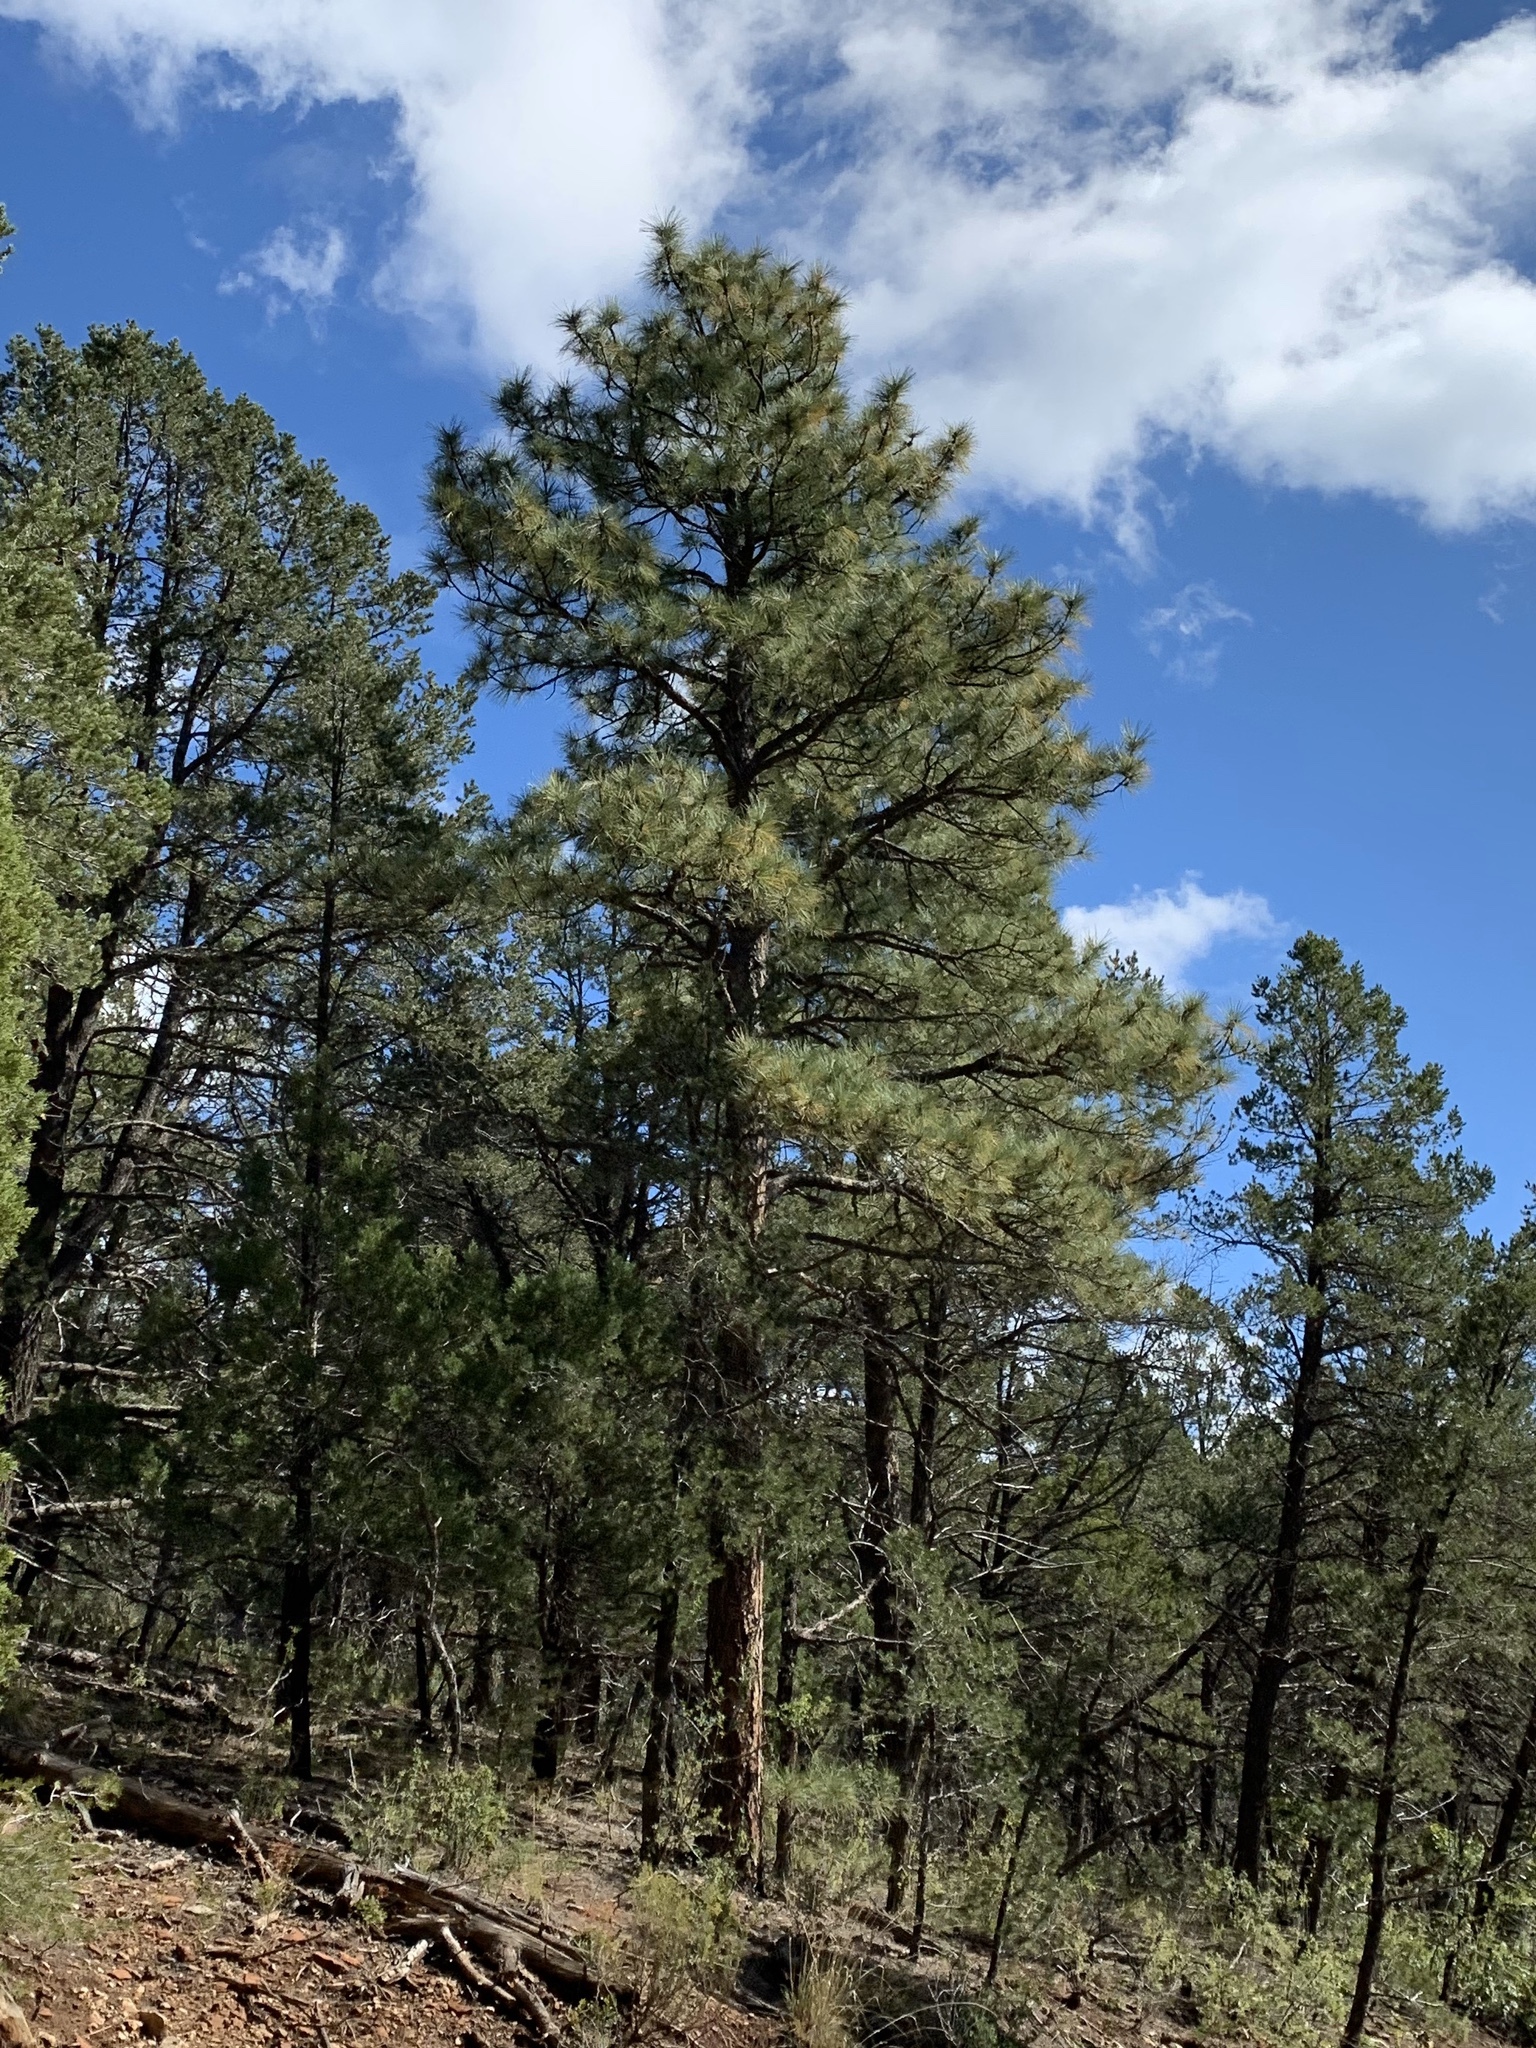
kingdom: Plantae
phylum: Tracheophyta
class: Pinopsida
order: Pinales
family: Pinaceae
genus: Pinus
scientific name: Pinus ponderosa
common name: Western yellow-pine
